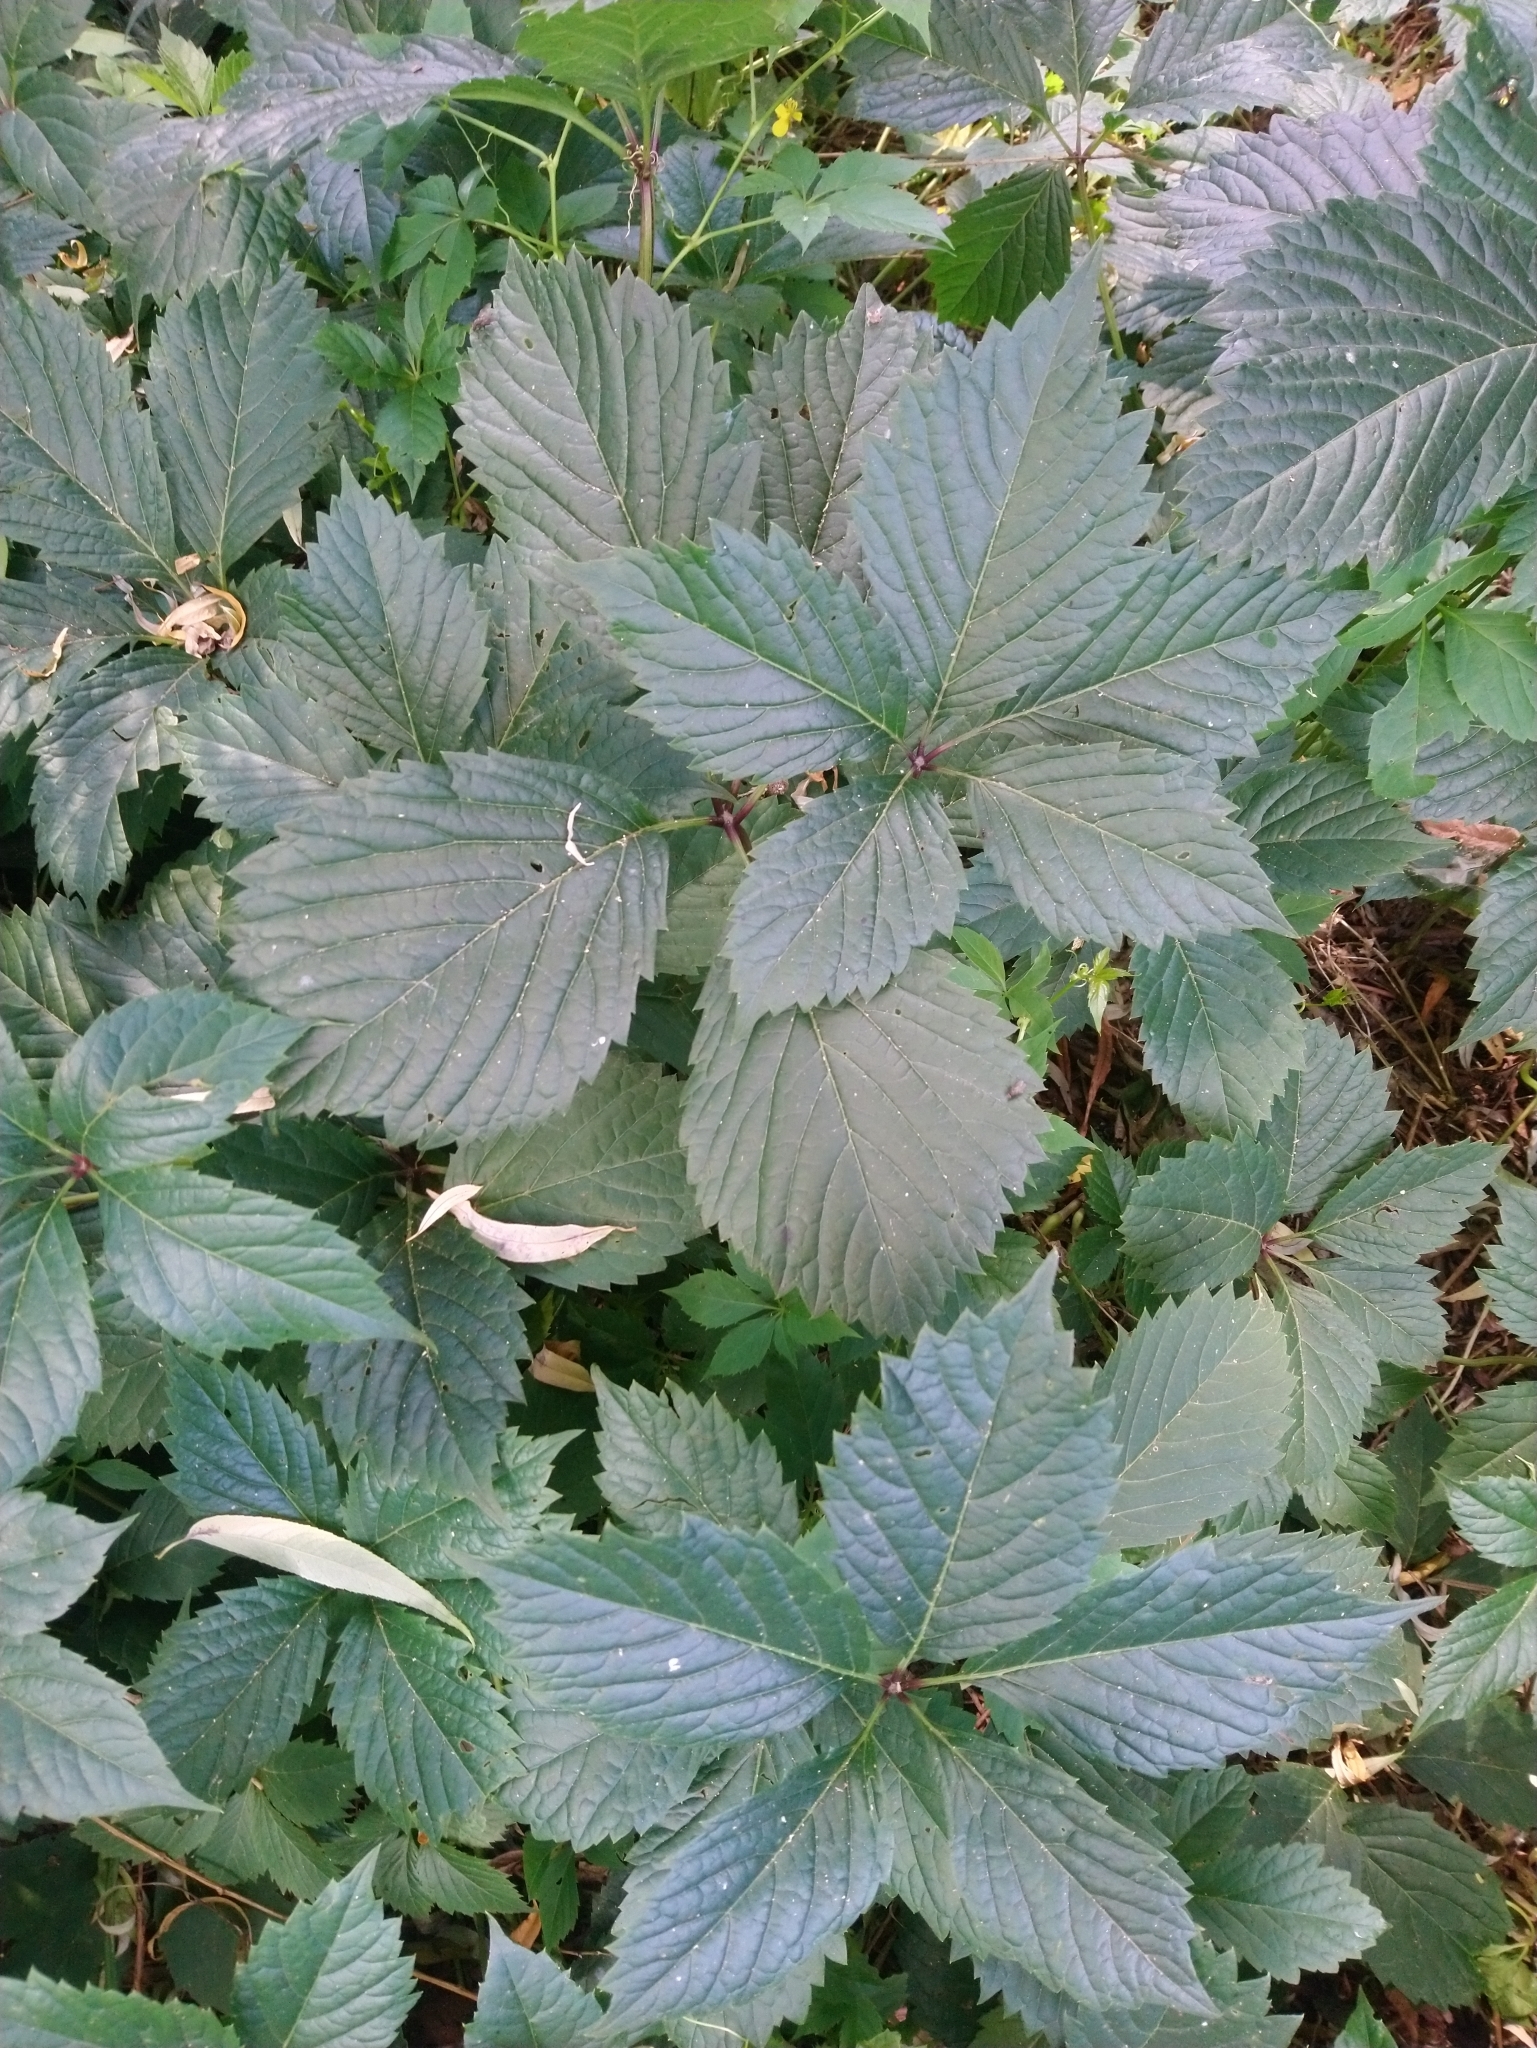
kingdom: Plantae
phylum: Tracheophyta
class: Magnoliopsida
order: Vitales
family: Vitaceae
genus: Parthenocissus
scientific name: Parthenocissus inserta
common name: False virginia-creeper
